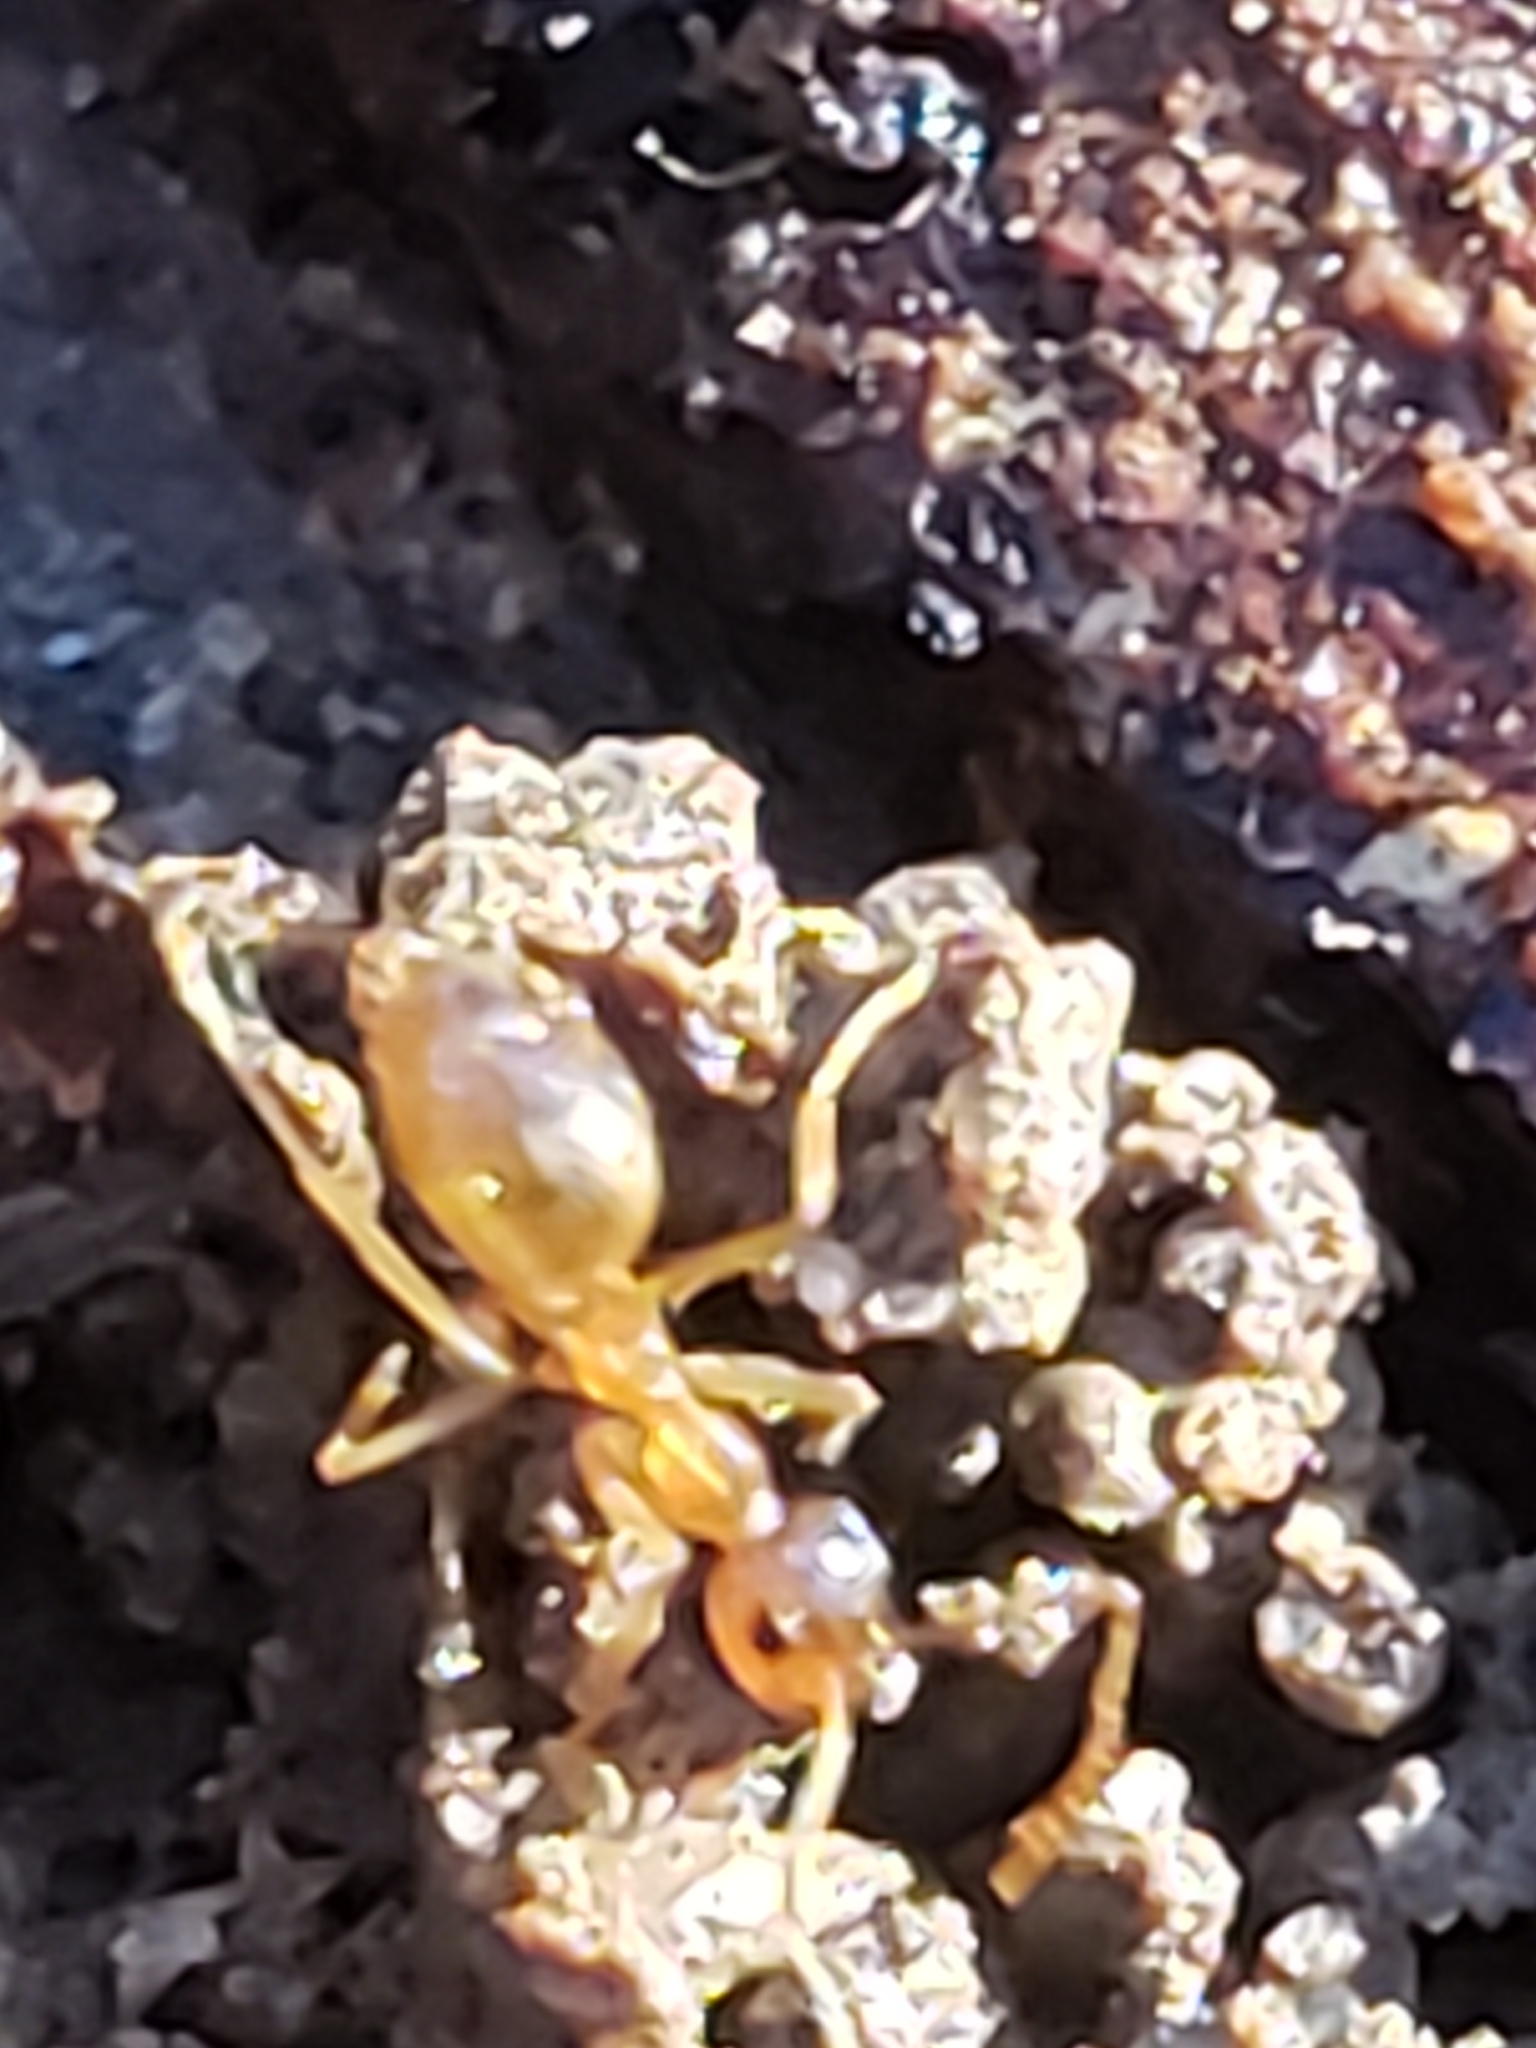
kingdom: Animalia
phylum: Arthropoda
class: Insecta
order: Hymenoptera
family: Formicidae
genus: Prenolepis
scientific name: Prenolepis imparis
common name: Small honey ant
